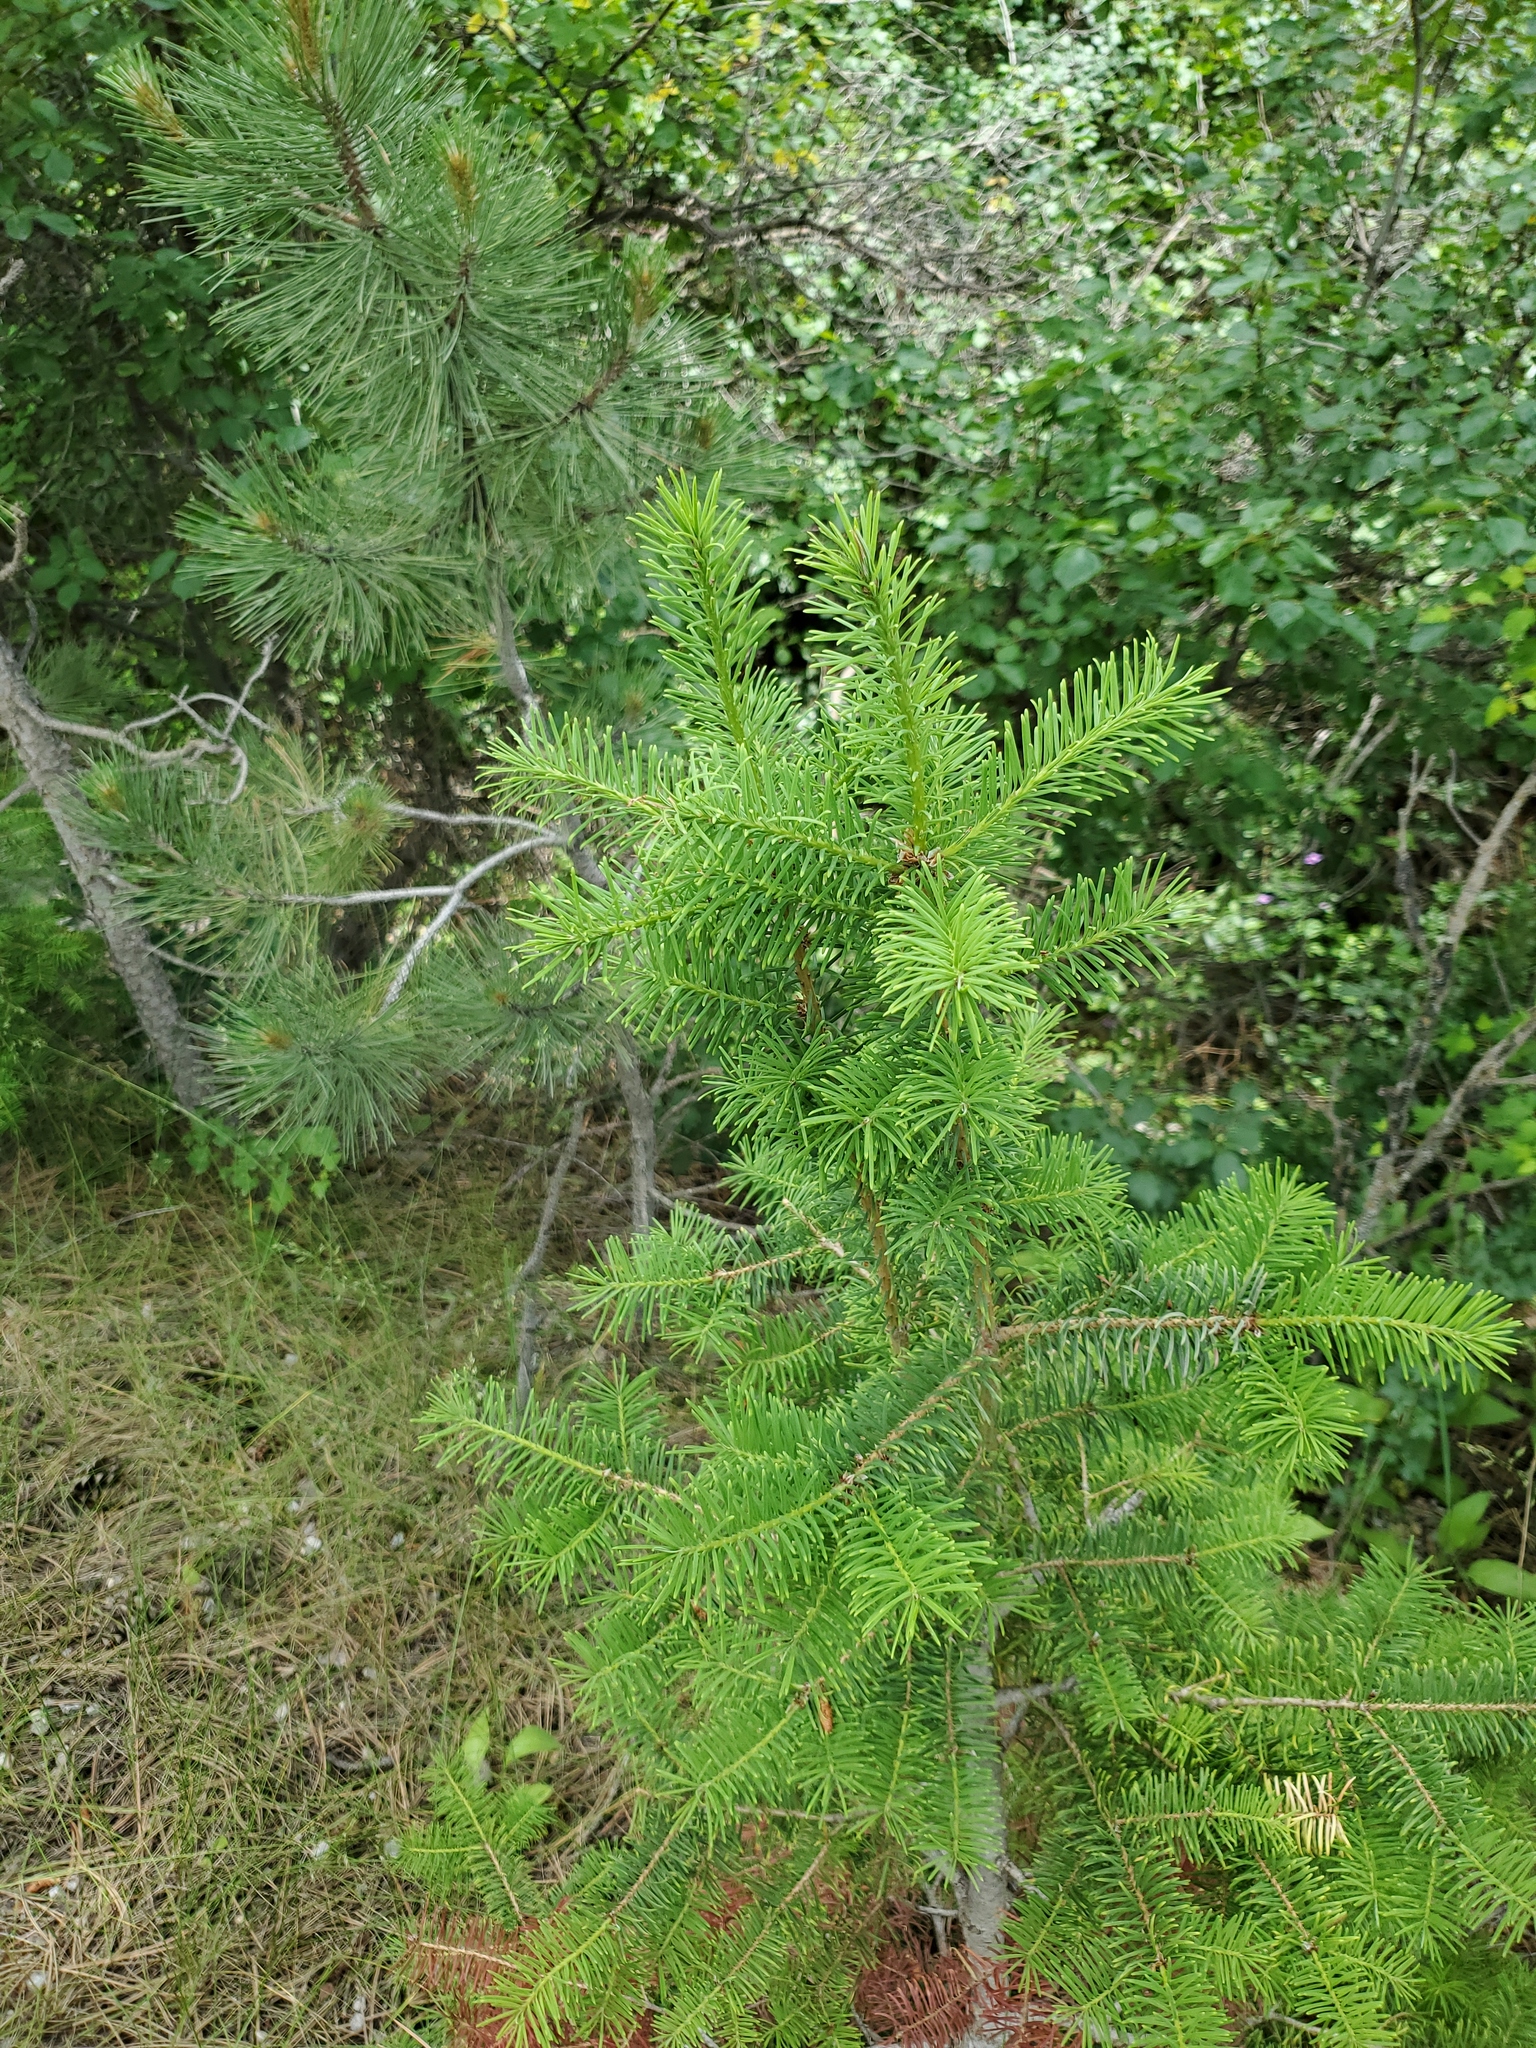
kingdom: Plantae
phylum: Tracheophyta
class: Pinopsida
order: Pinales
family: Pinaceae
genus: Pseudotsuga
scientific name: Pseudotsuga menziesii
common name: Douglas fir
